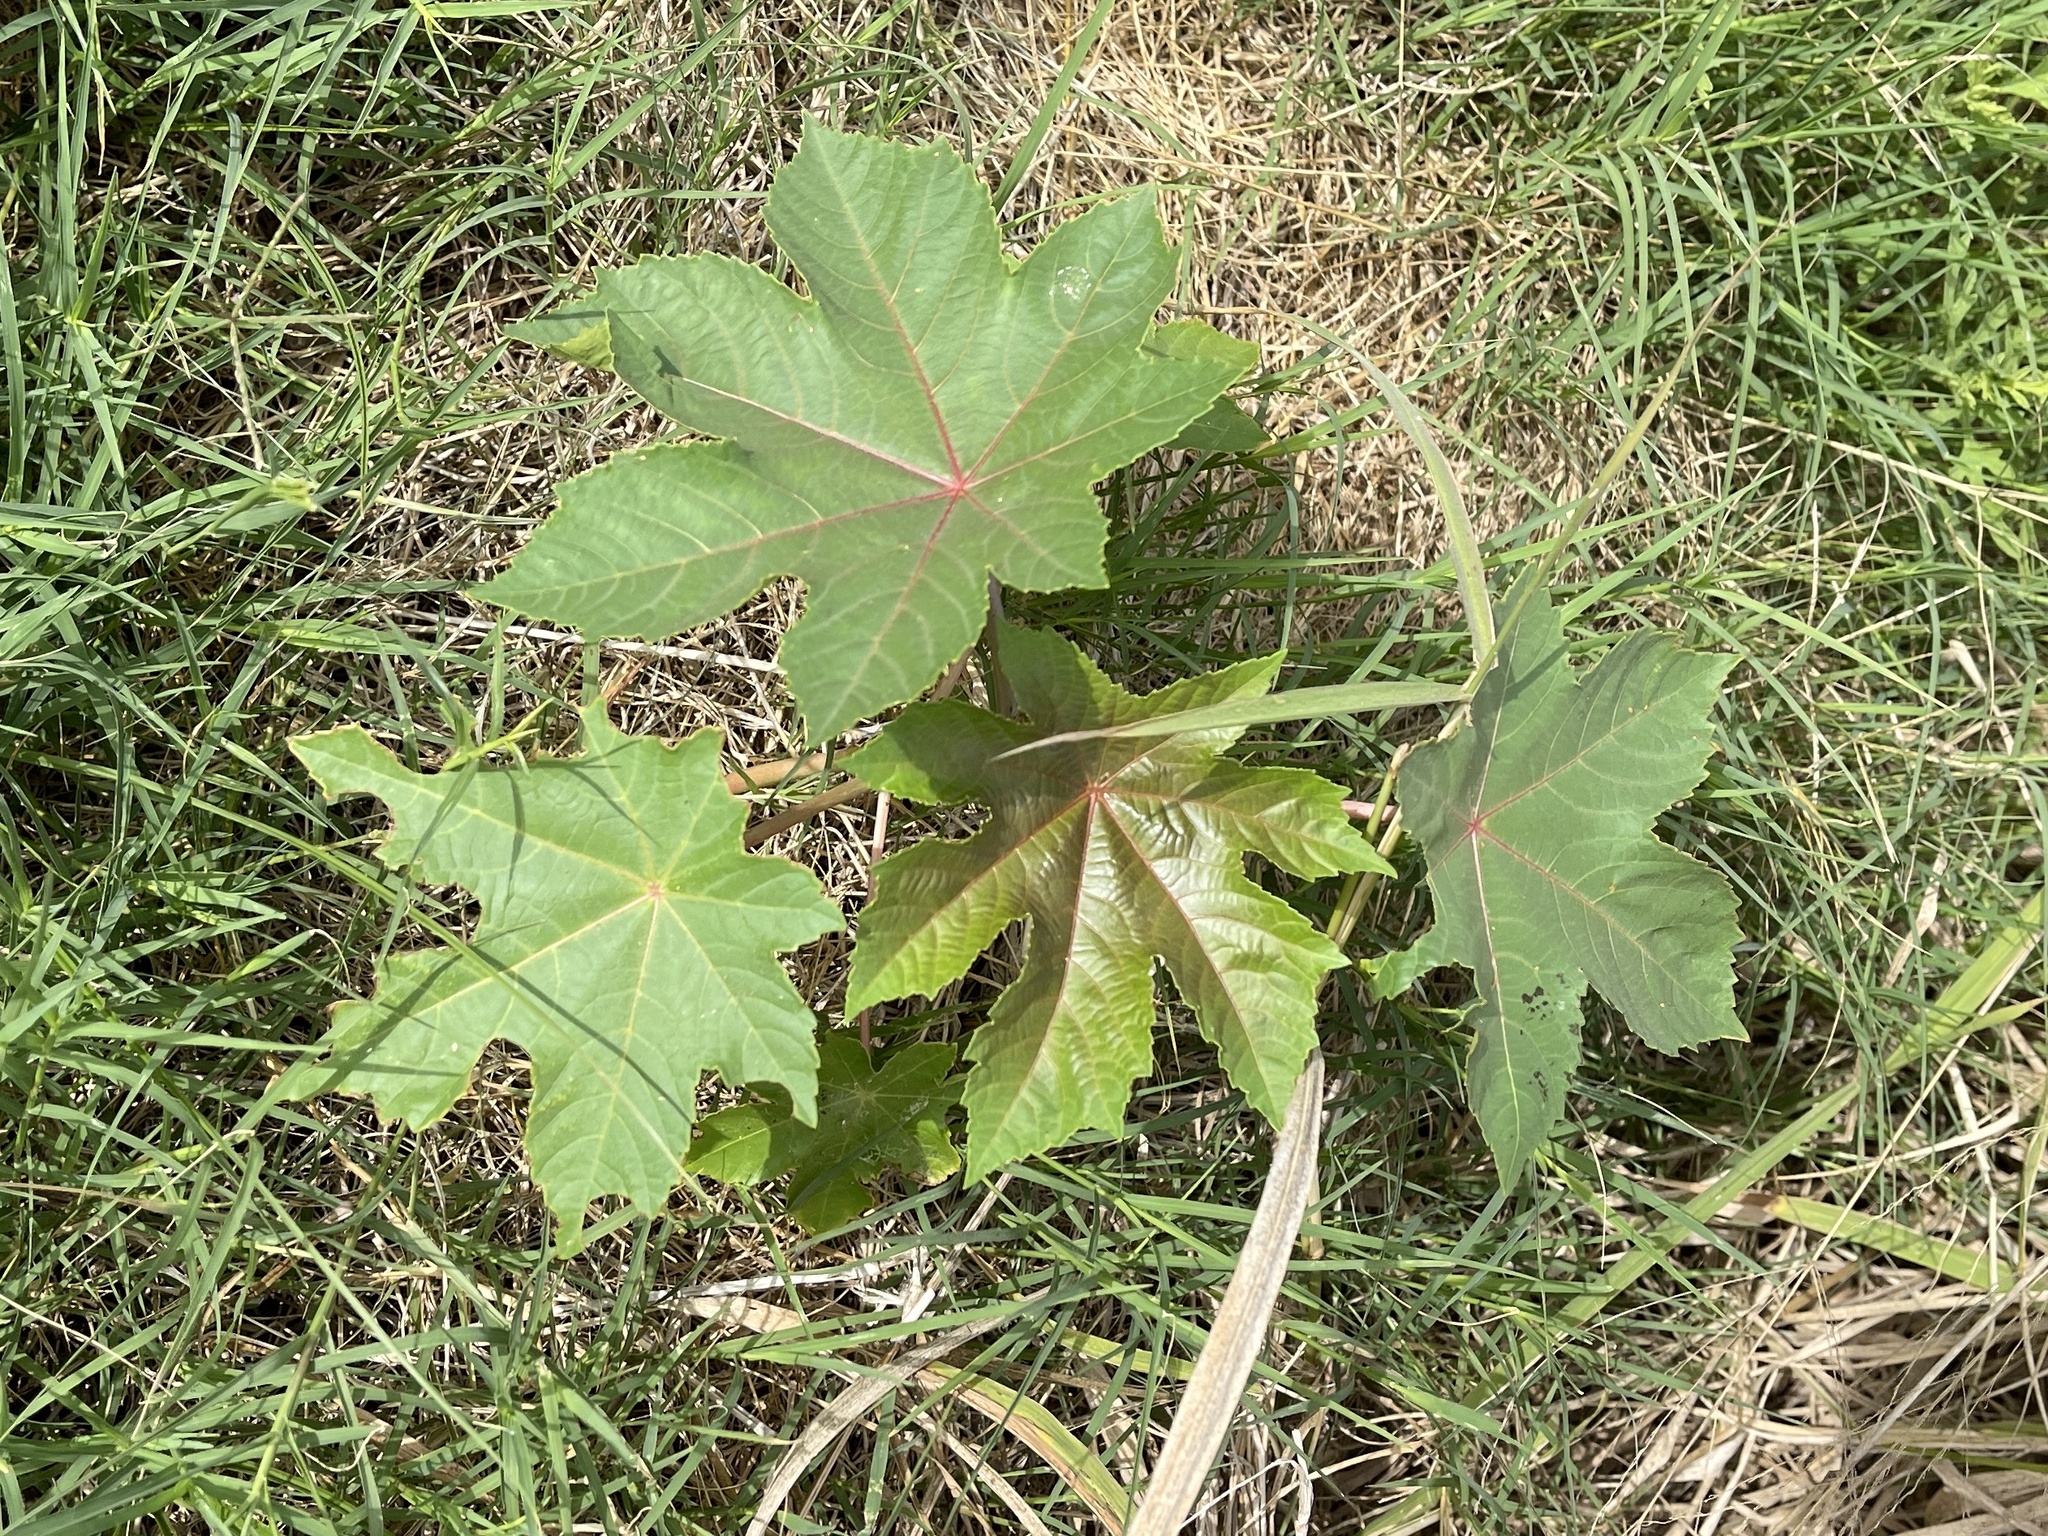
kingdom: Plantae
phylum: Tracheophyta
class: Magnoliopsida
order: Malpighiales
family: Euphorbiaceae
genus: Ricinus
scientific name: Ricinus communis
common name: Castor-oil-plant
